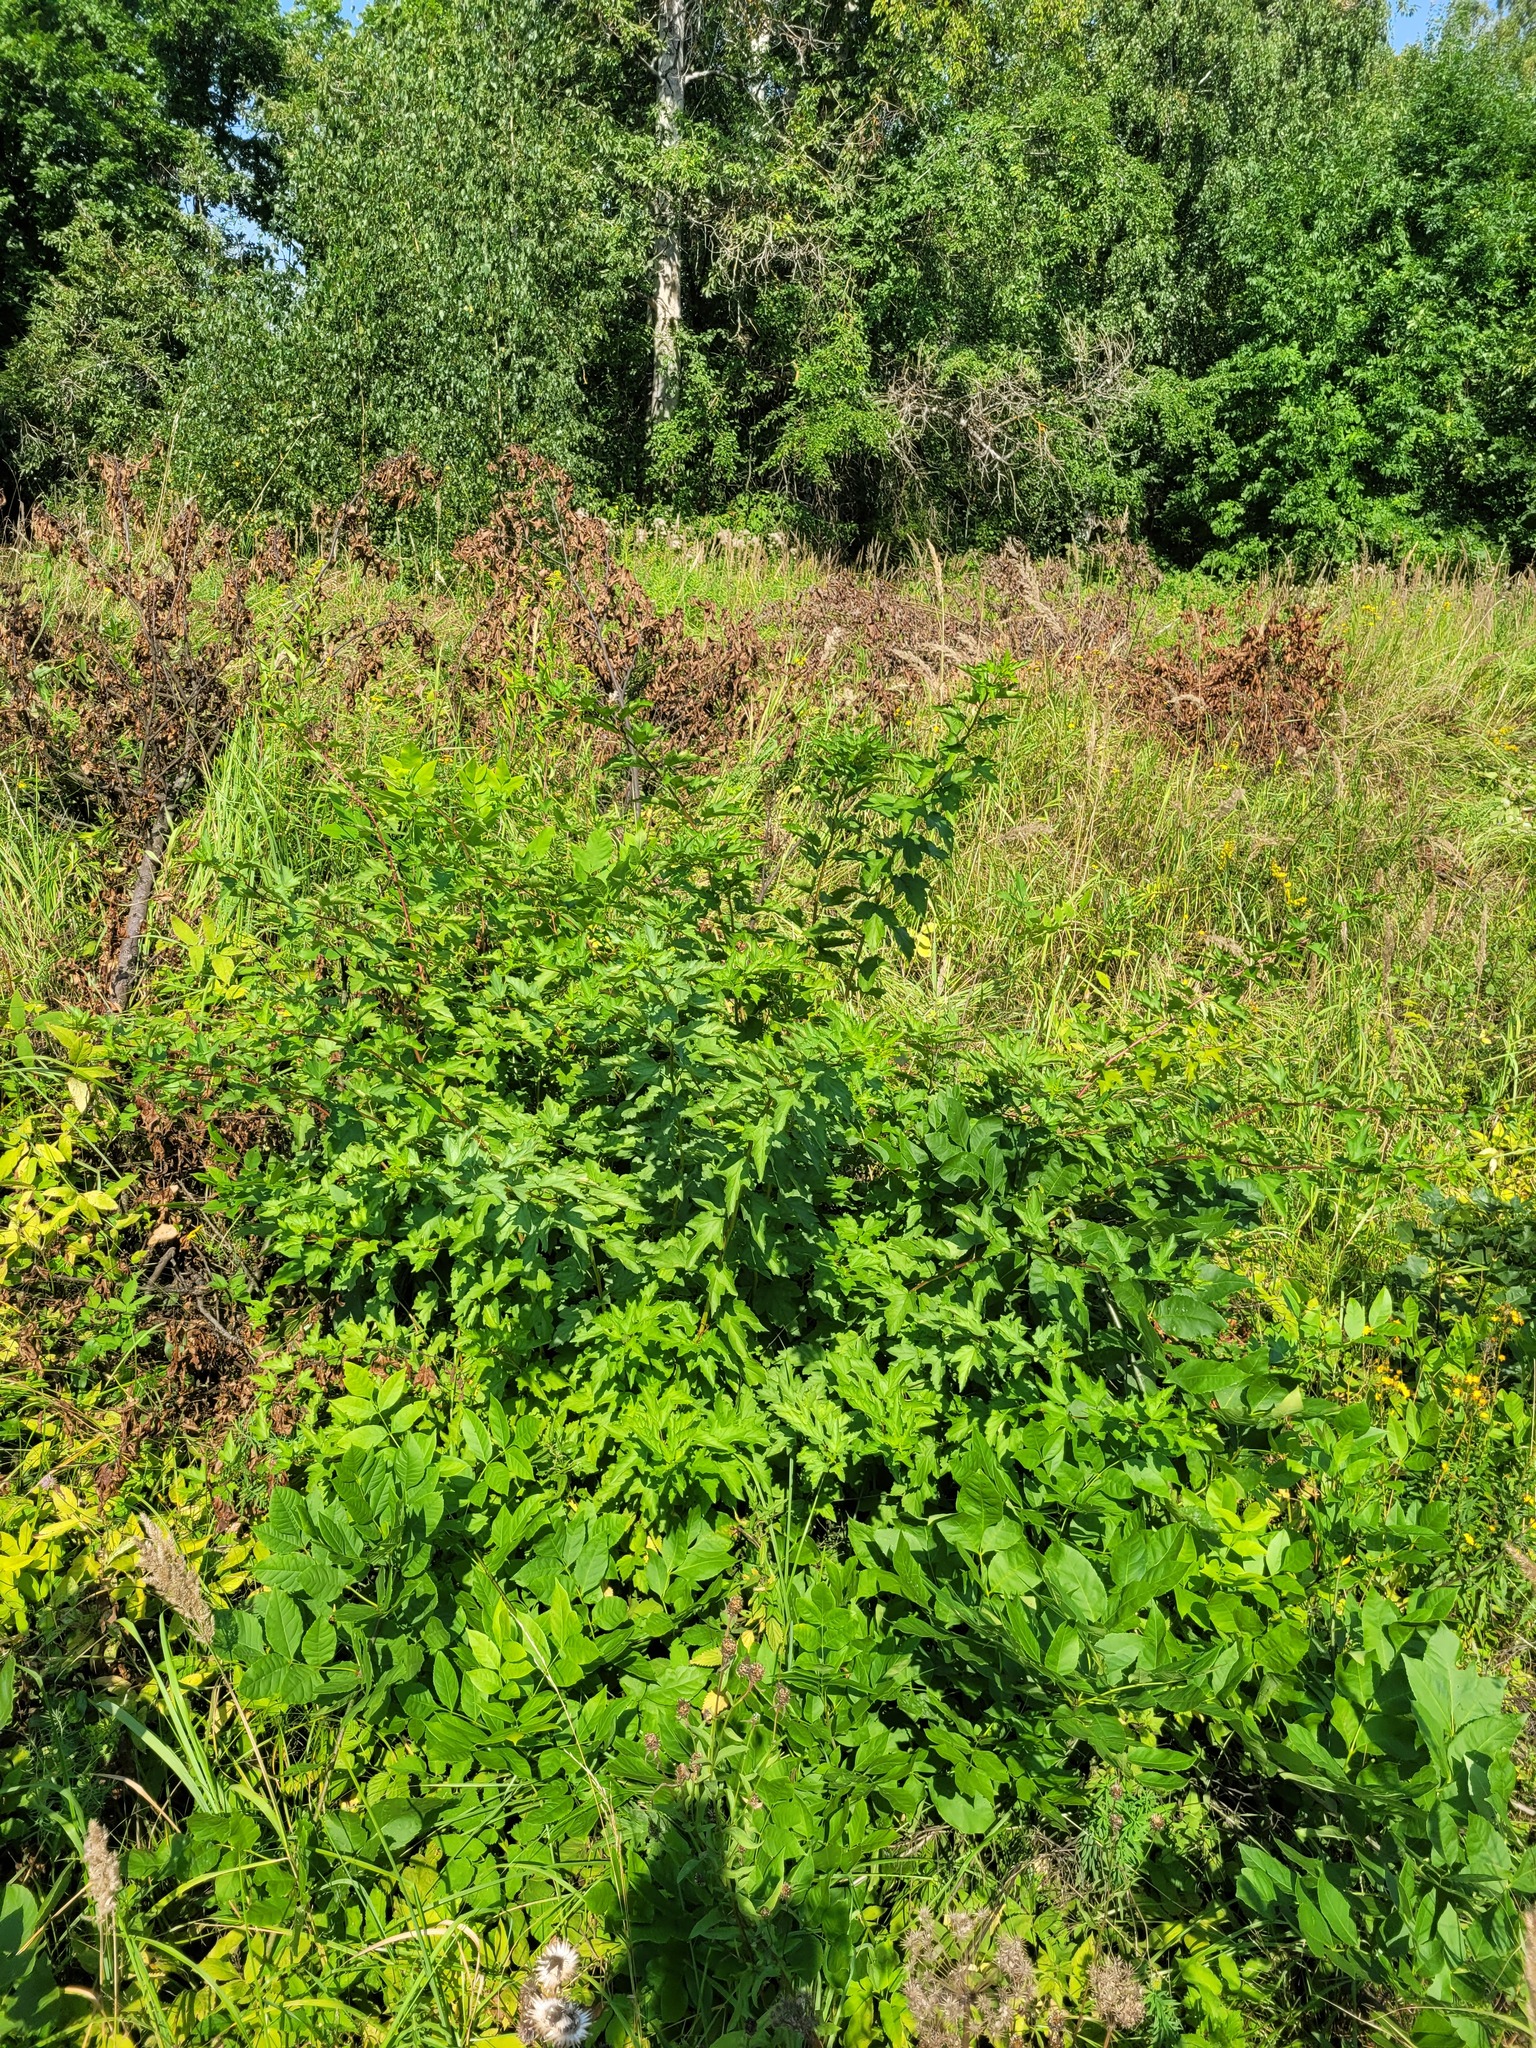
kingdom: Plantae
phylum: Tracheophyta
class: Magnoliopsida
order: Rosales
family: Rosaceae
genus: Physocarpus
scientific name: Physocarpus opulifolius
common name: Ninebark
